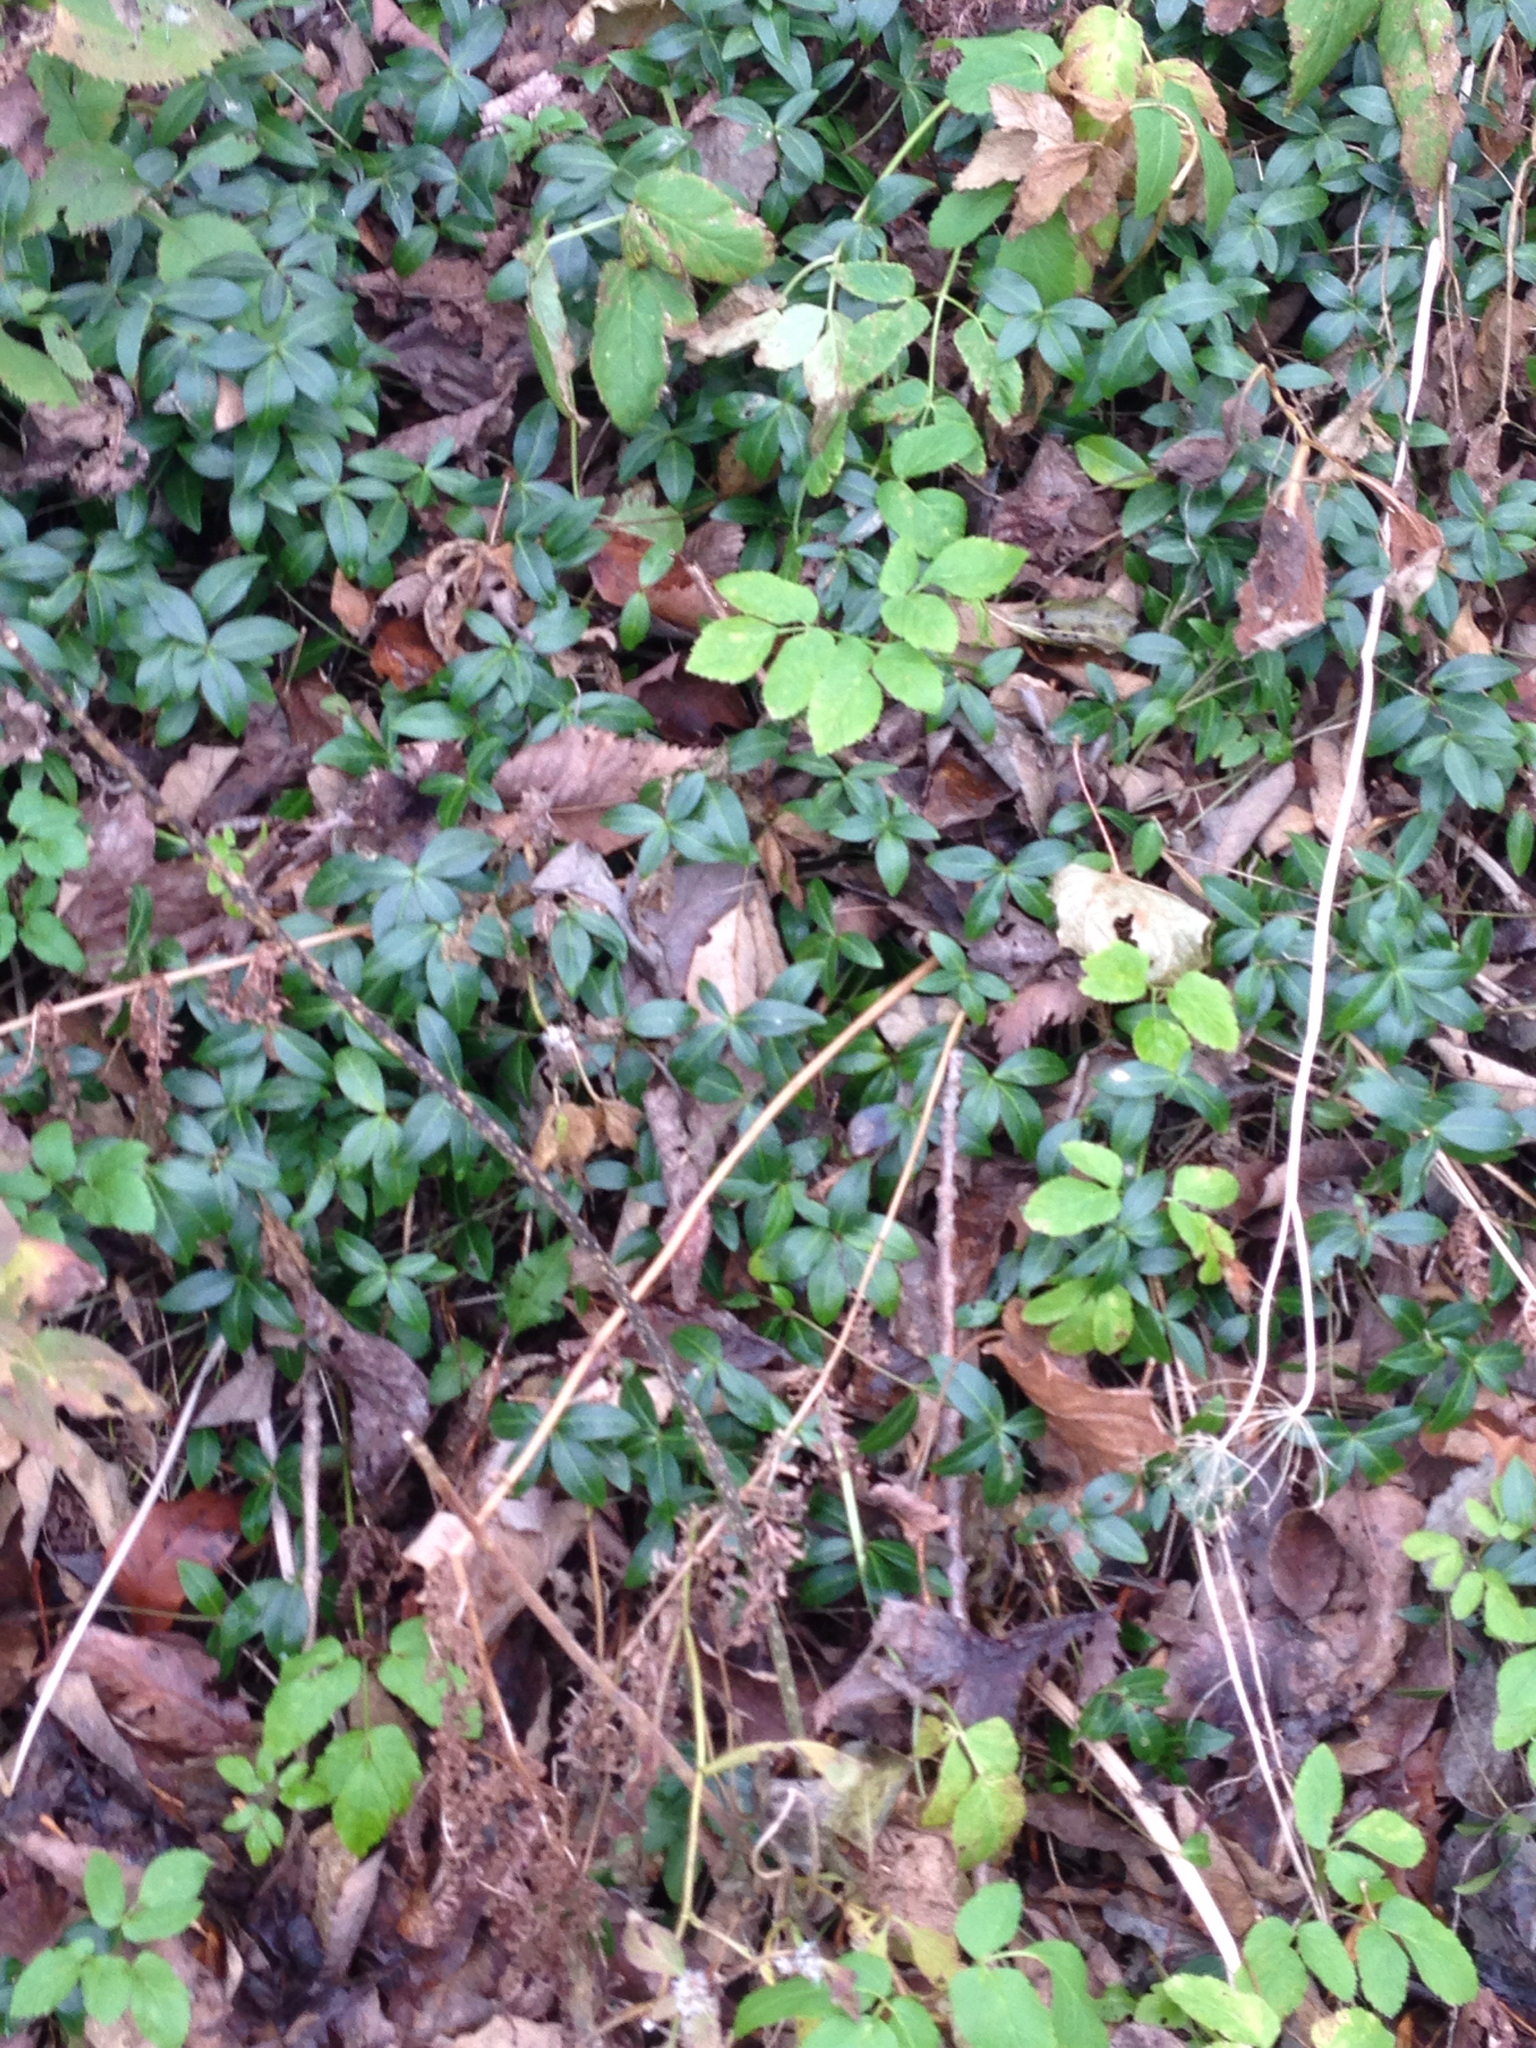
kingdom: Plantae
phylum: Tracheophyta
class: Magnoliopsida
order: Gentianales
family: Apocynaceae
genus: Vinca
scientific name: Vinca minor
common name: Lesser periwinkle
